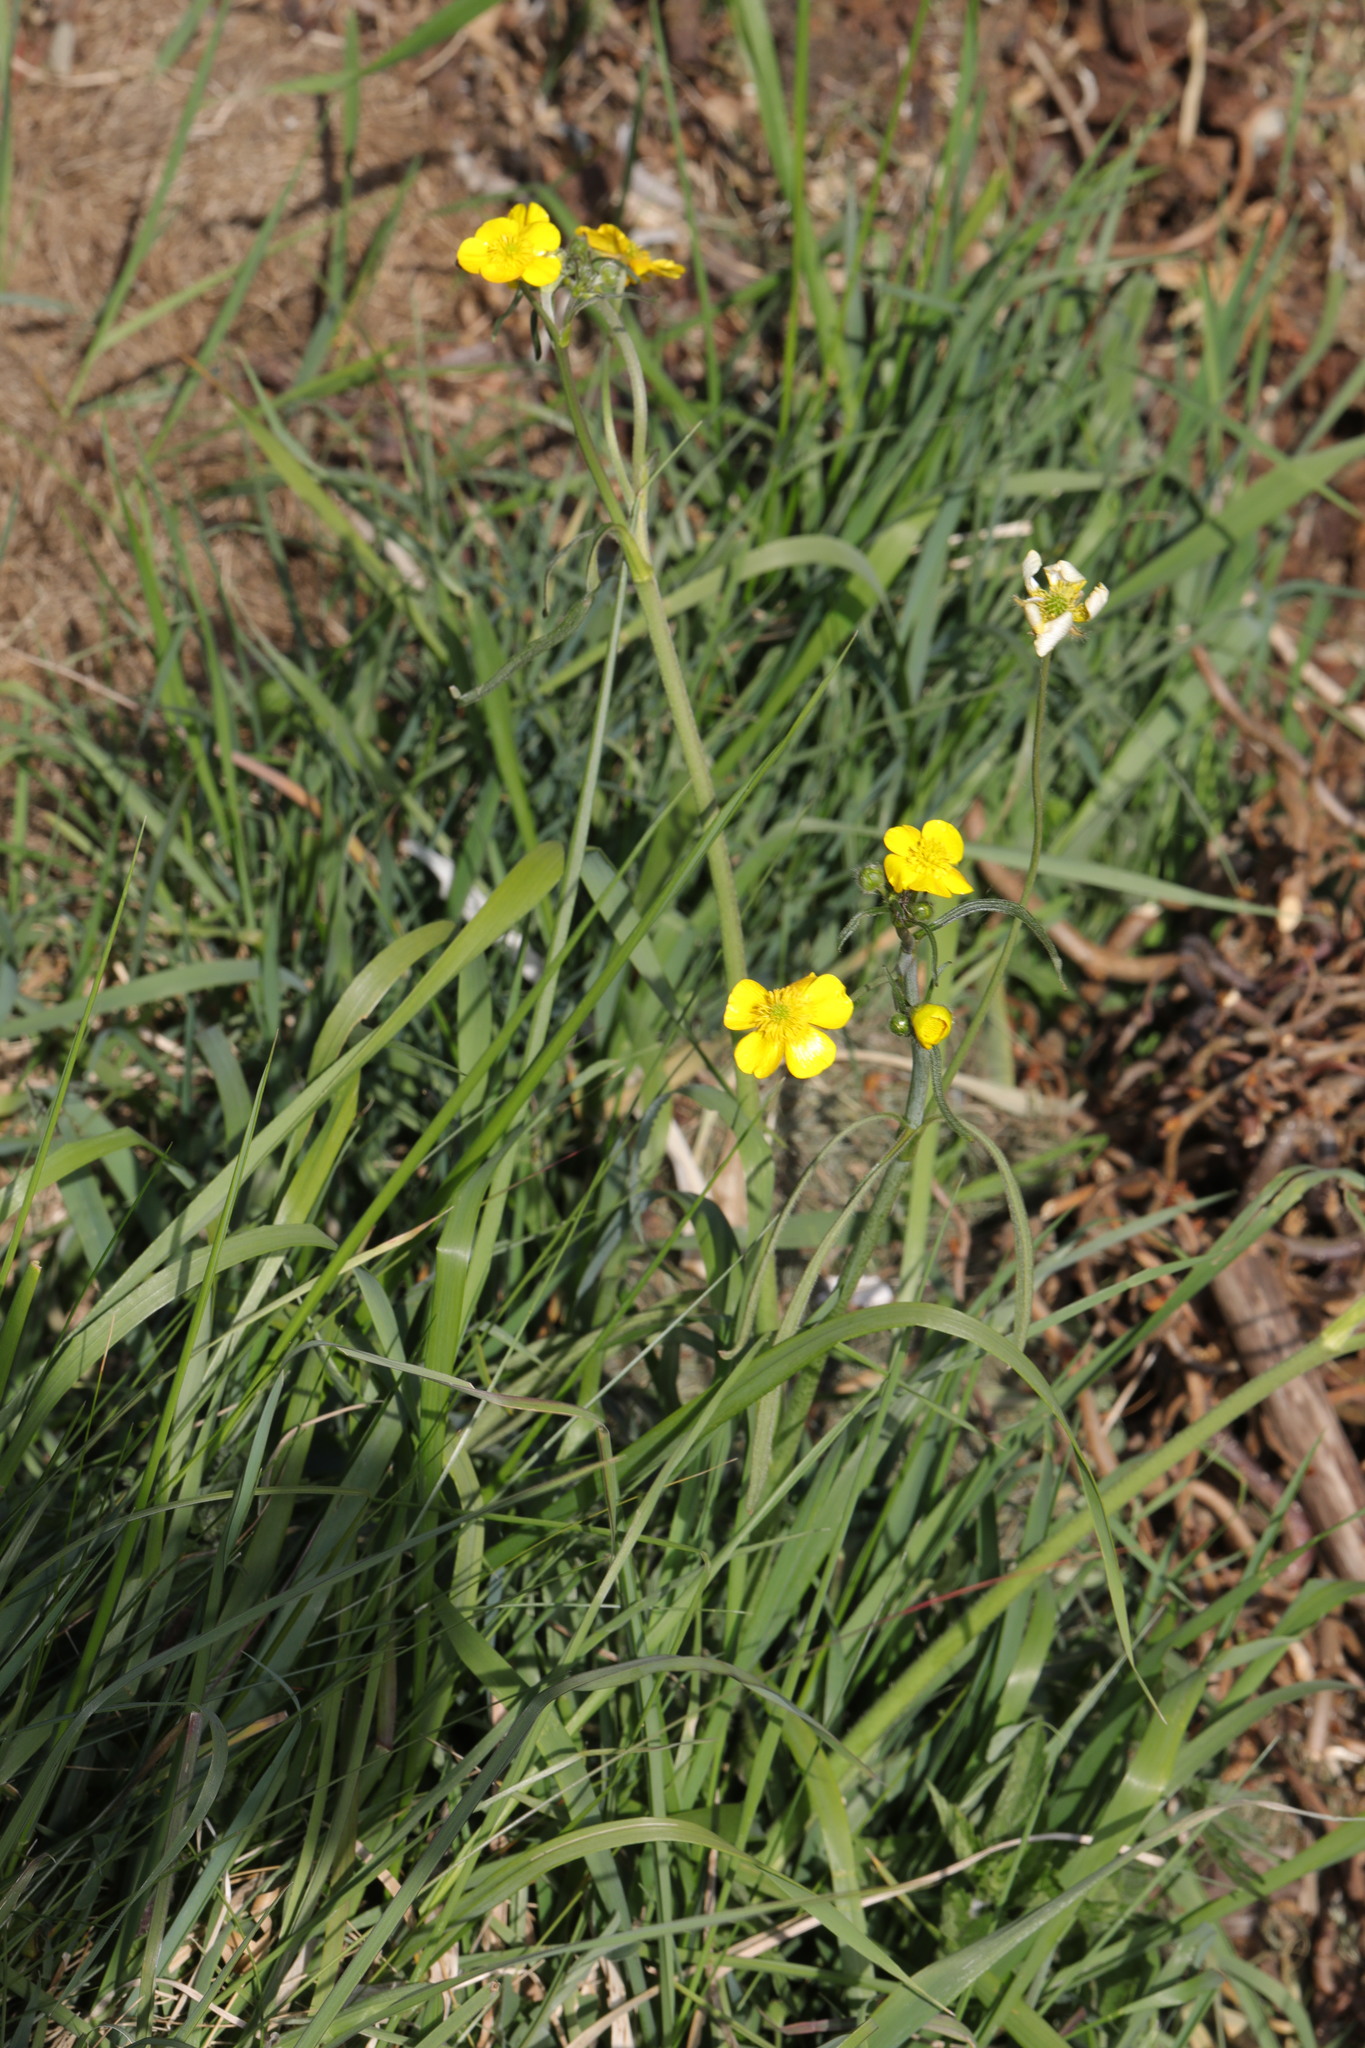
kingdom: Plantae
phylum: Tracheophyta
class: Magnoliopsida
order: Ranunculales
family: Ranunculaceae
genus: Ranunculus
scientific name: Ranunculus acris
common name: Meadow buttercup
